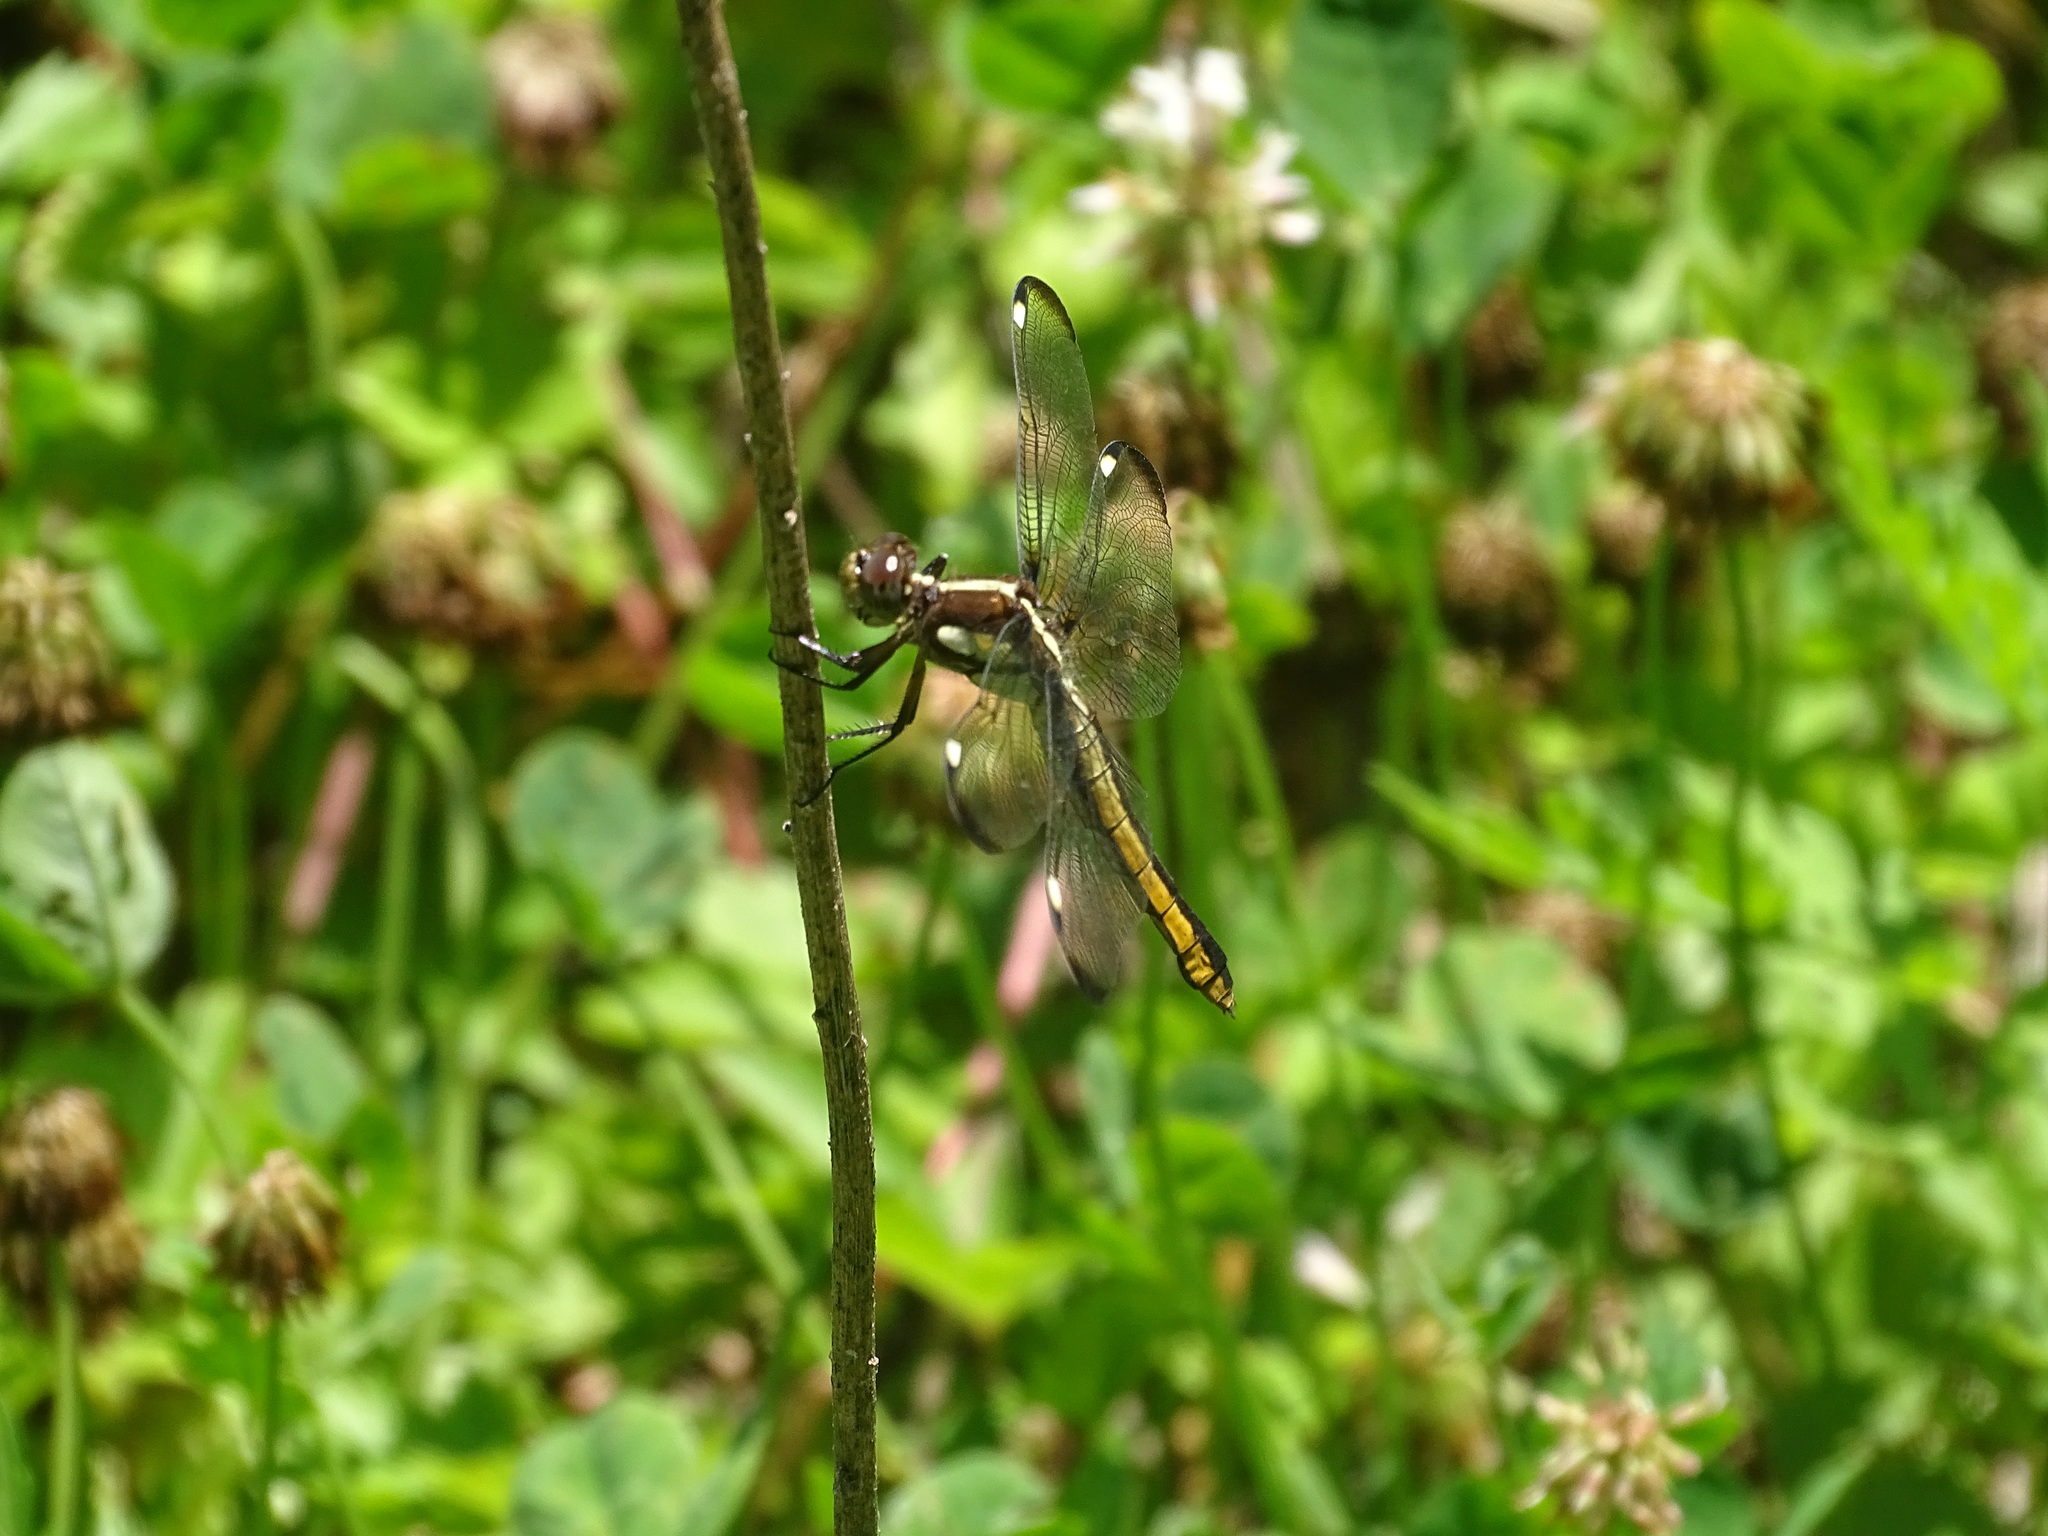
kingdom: Animalia
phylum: Arthropoda
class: Insecta
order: Odonata
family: Libellulidae
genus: Libellula
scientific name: Libellula cyanea
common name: Spangled skimmer
